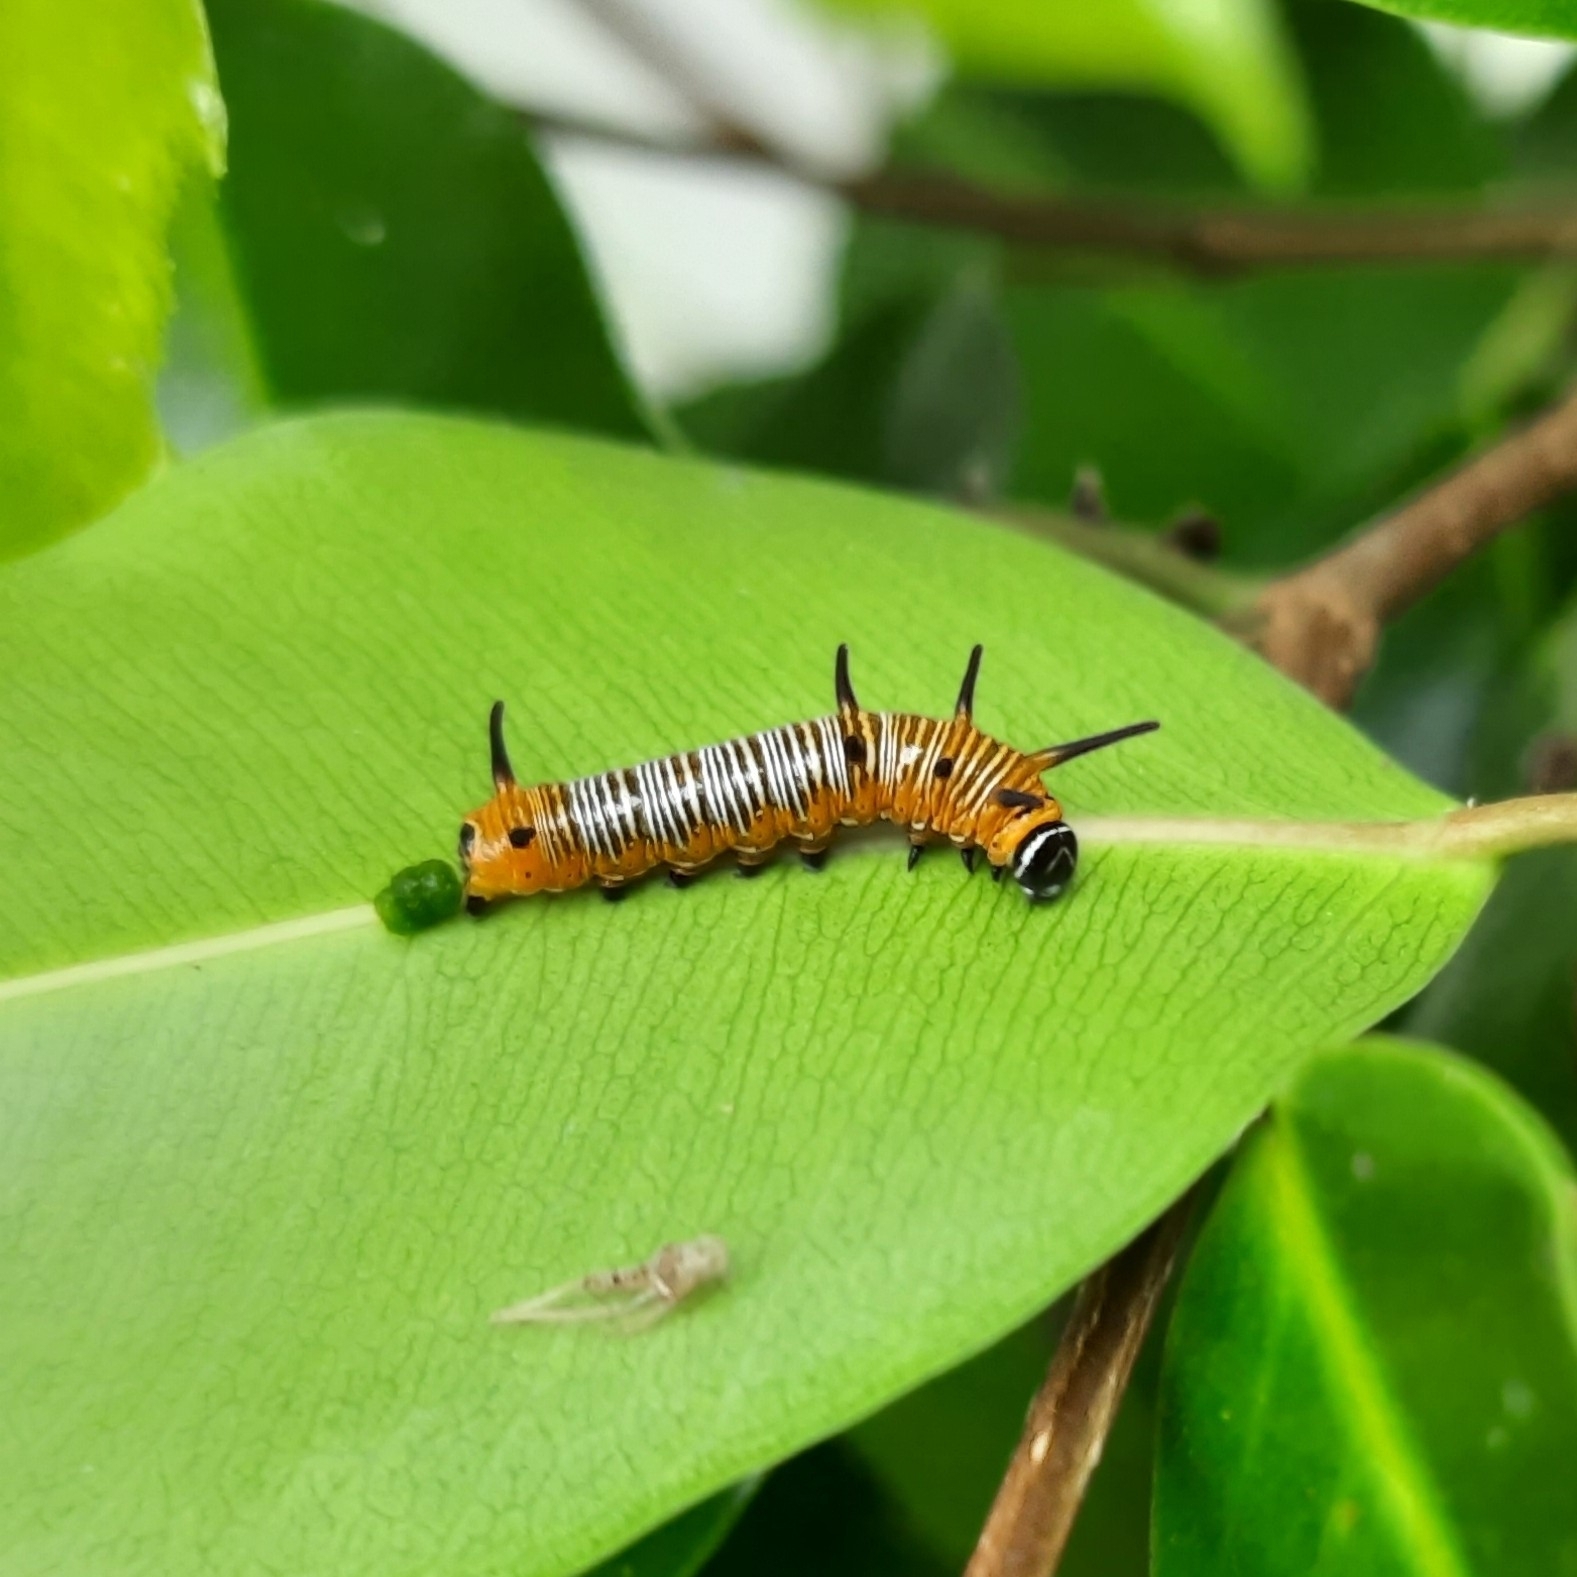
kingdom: Animalia
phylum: Arthropoda
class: Insecta
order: Lepidoptera
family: Nymphalidae
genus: Euploea
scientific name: Euploea core
